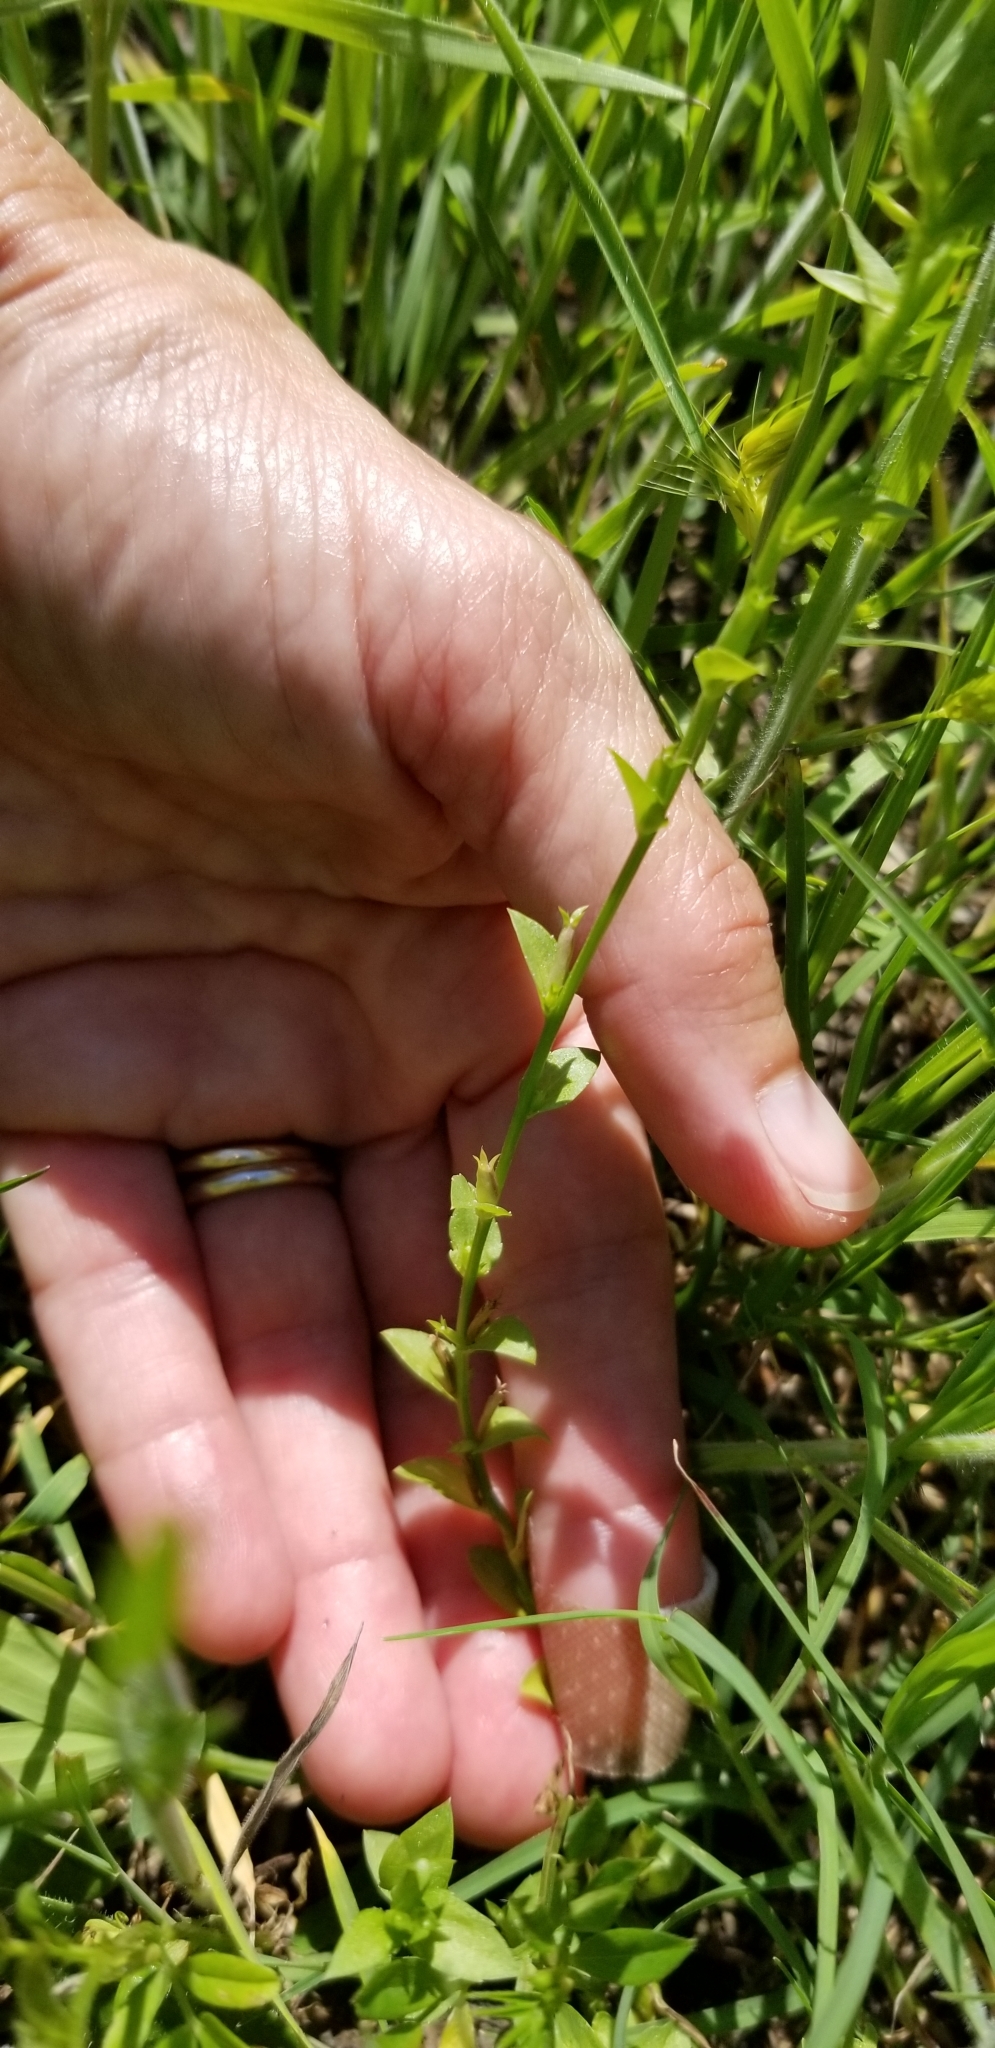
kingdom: Plantae
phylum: Tracheophyta
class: Magnoliopsida
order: Asterales
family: Campanulaceae
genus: Triodanis
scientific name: Triodanis biflora
